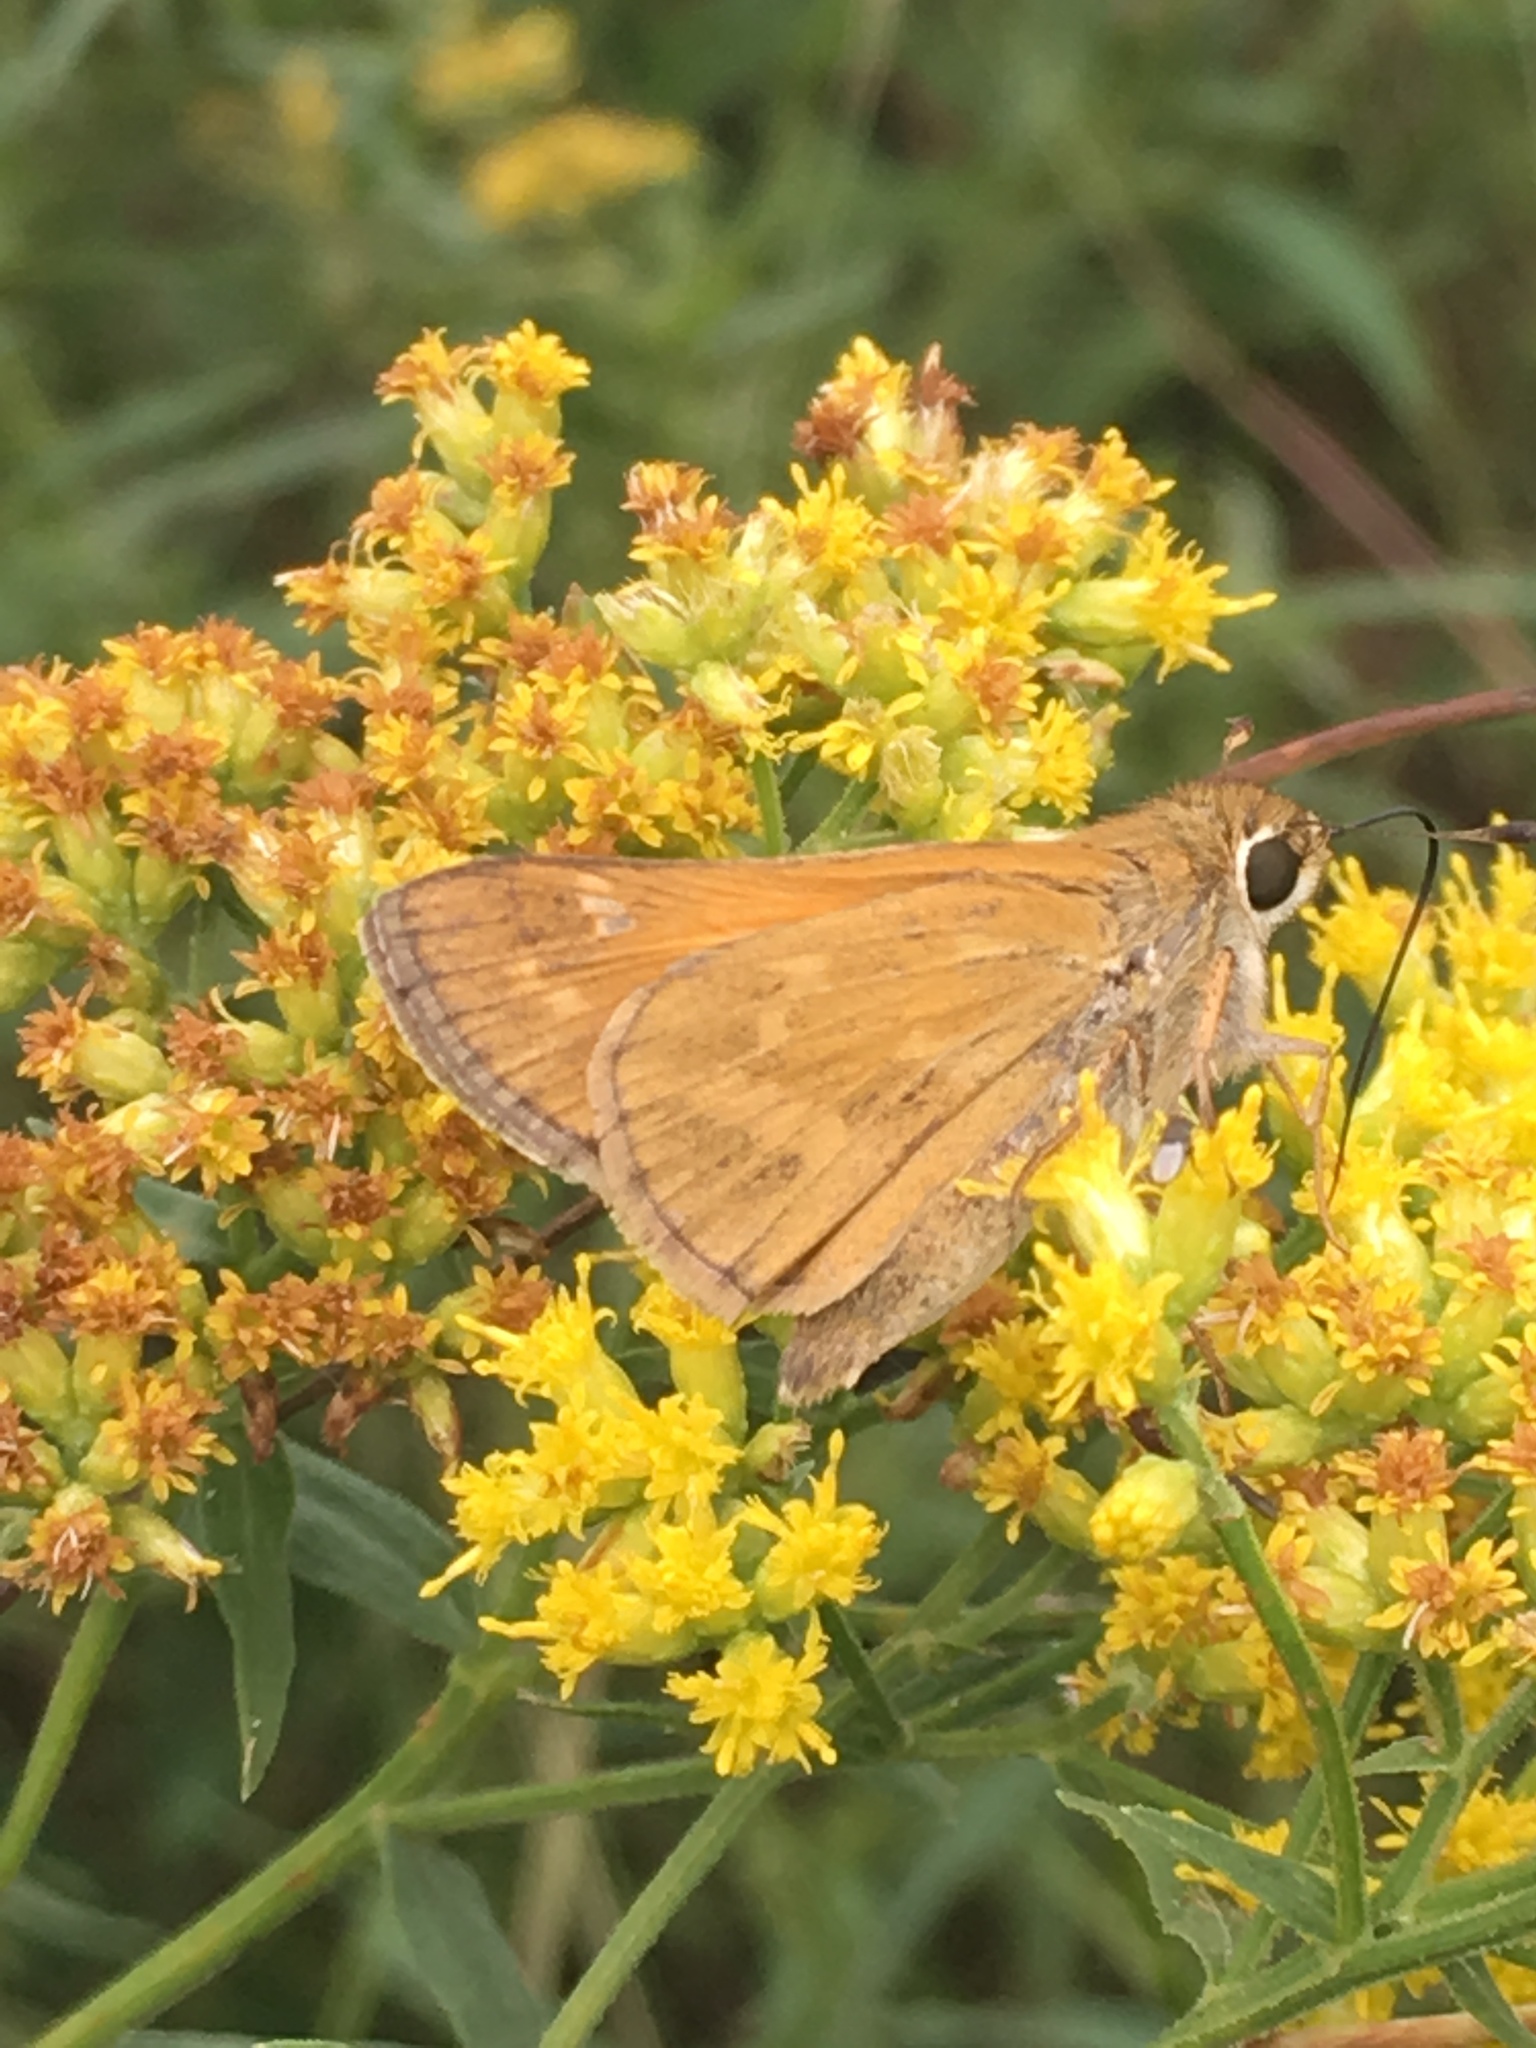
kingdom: Animalia
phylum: Arthropoda
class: Insecta
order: Lepidoptera
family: Hesperiidae
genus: Atalopedes
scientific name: Atalopedes
